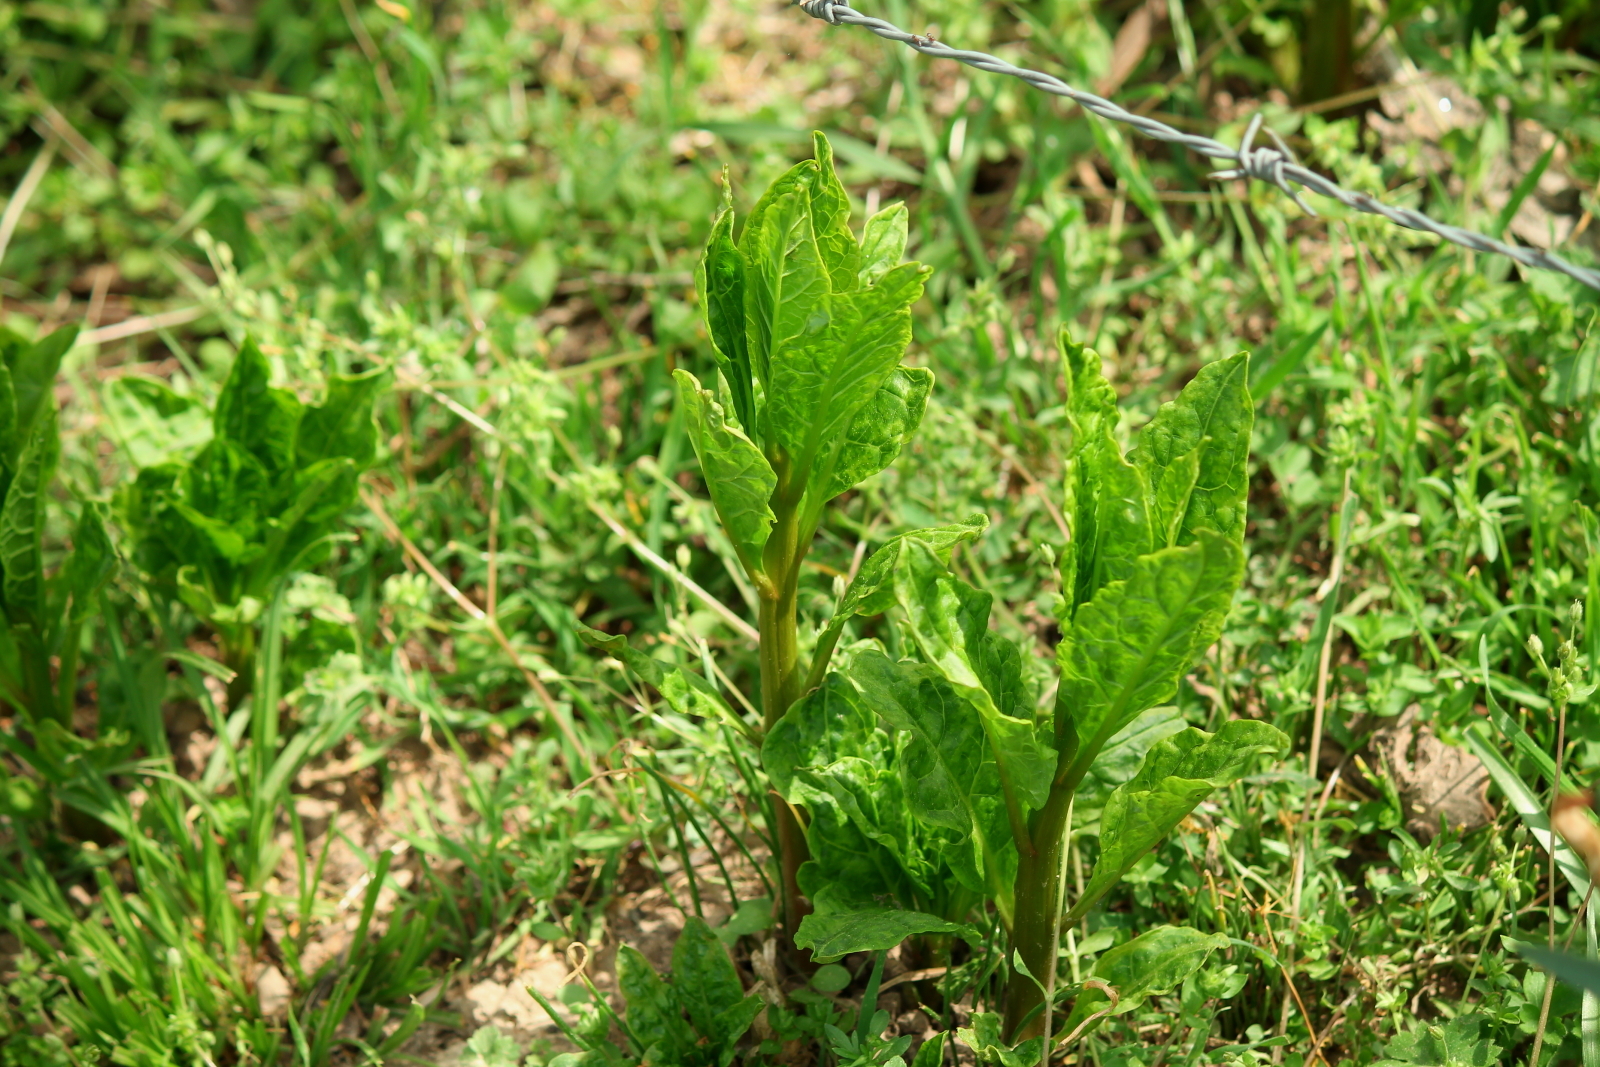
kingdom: Plantae
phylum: Tracheophyta
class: Magnoliopsida
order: Caryophyllales
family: Phytolaccaceae
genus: Phytolacca
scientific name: Phytolacca americana
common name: American pokeweed
